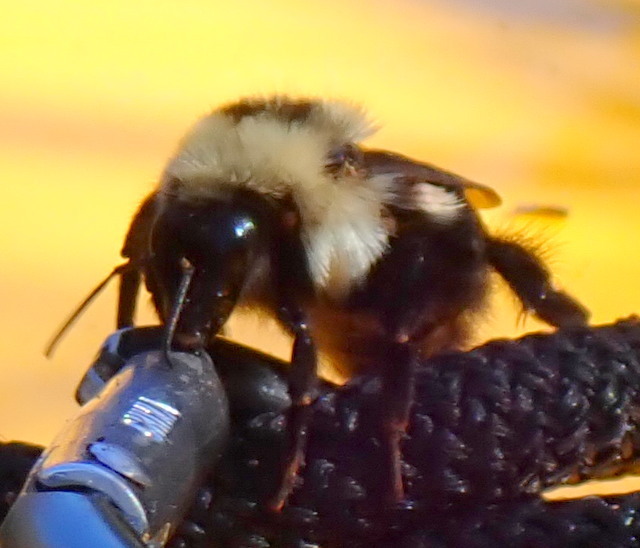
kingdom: Animalia
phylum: Arthropoda
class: Insecta
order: Hymenoptera
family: Apidae
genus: Bombus
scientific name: Bombus bimaculatus
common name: Two-spotted bumble bee
